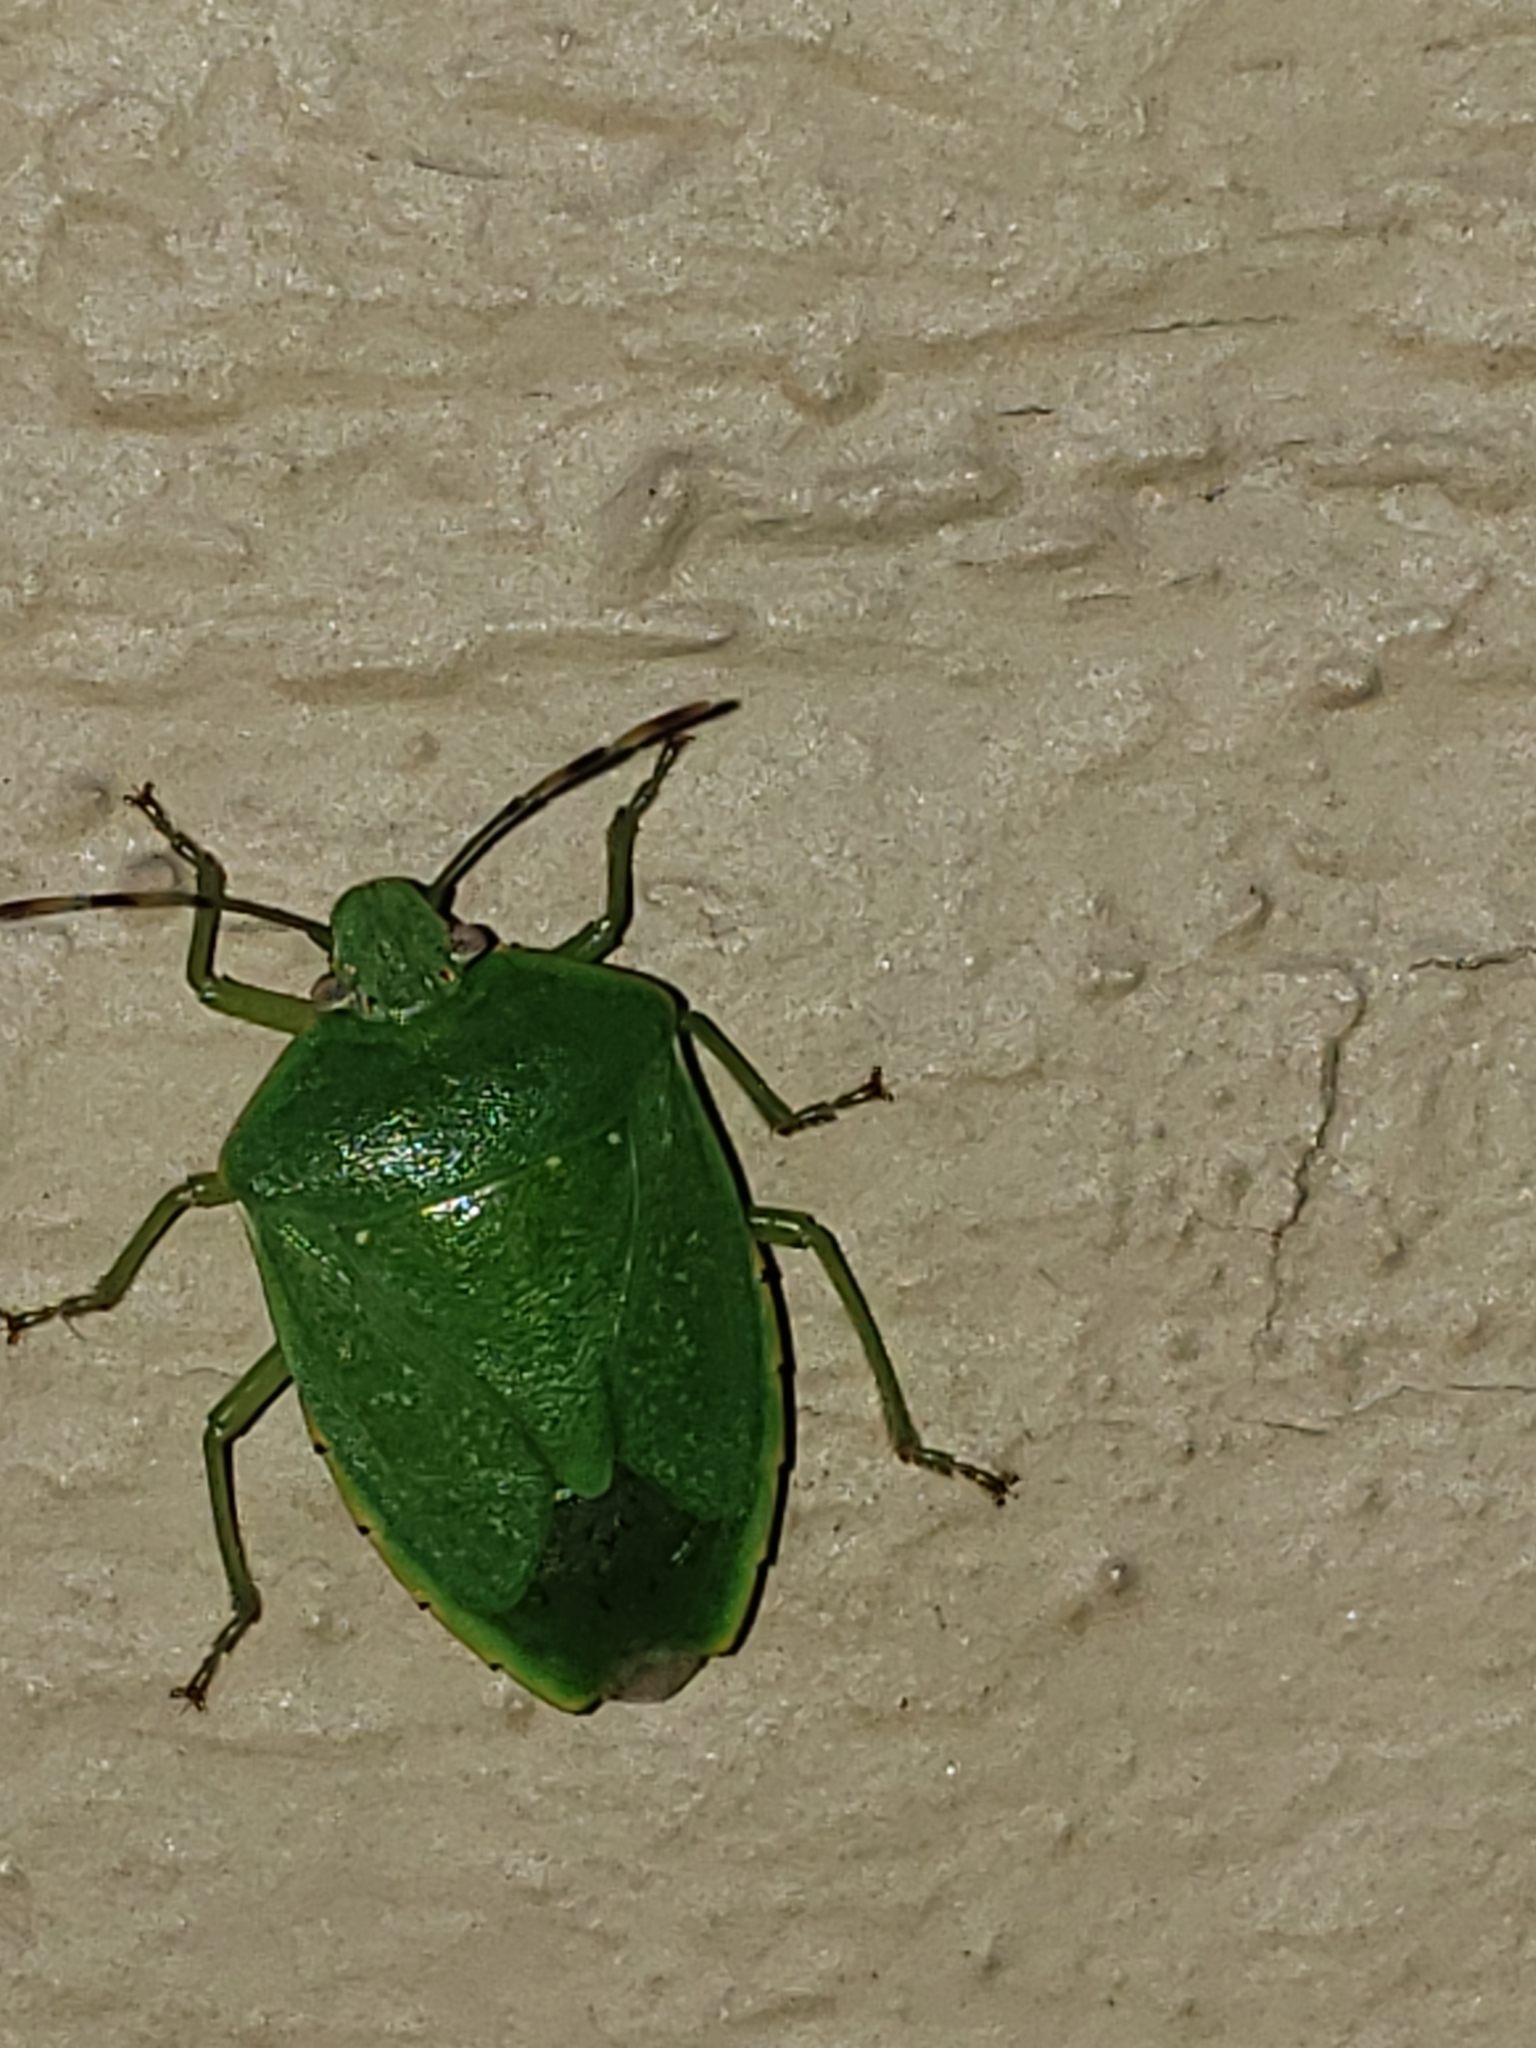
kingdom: Animalia
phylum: Arthropoda
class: Insecta
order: Hemiptera
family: Pentatomidae
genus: Chinavia
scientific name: Chinavia hilaris
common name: Green stink bug
